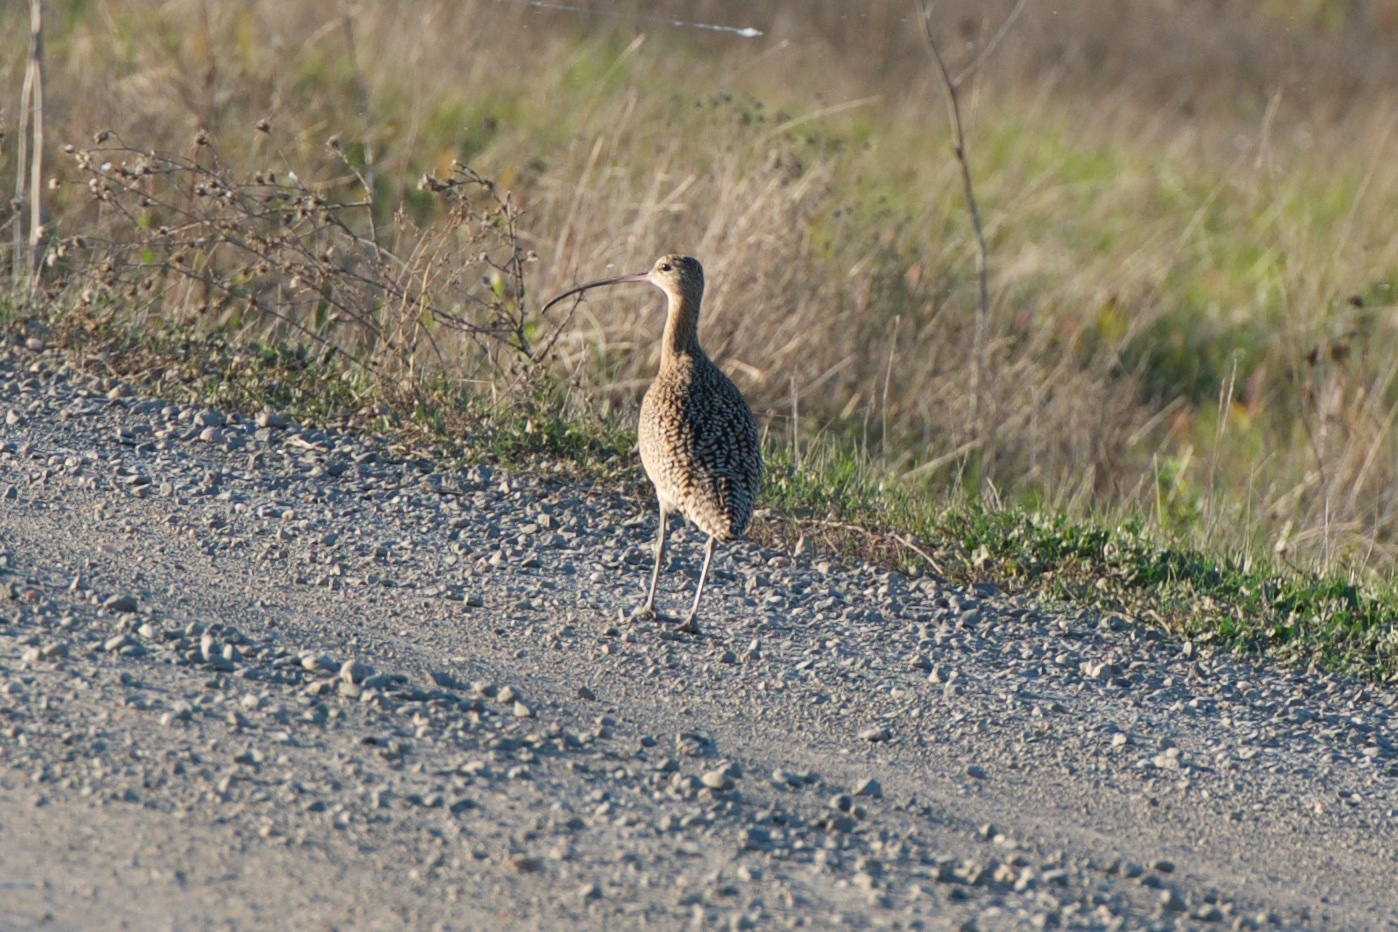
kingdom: Animalia
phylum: Chordata
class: Aves
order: Charadriiformes
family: Scolopacidae
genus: Numenius
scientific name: Numenius americanus
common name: Long-billed curlew
